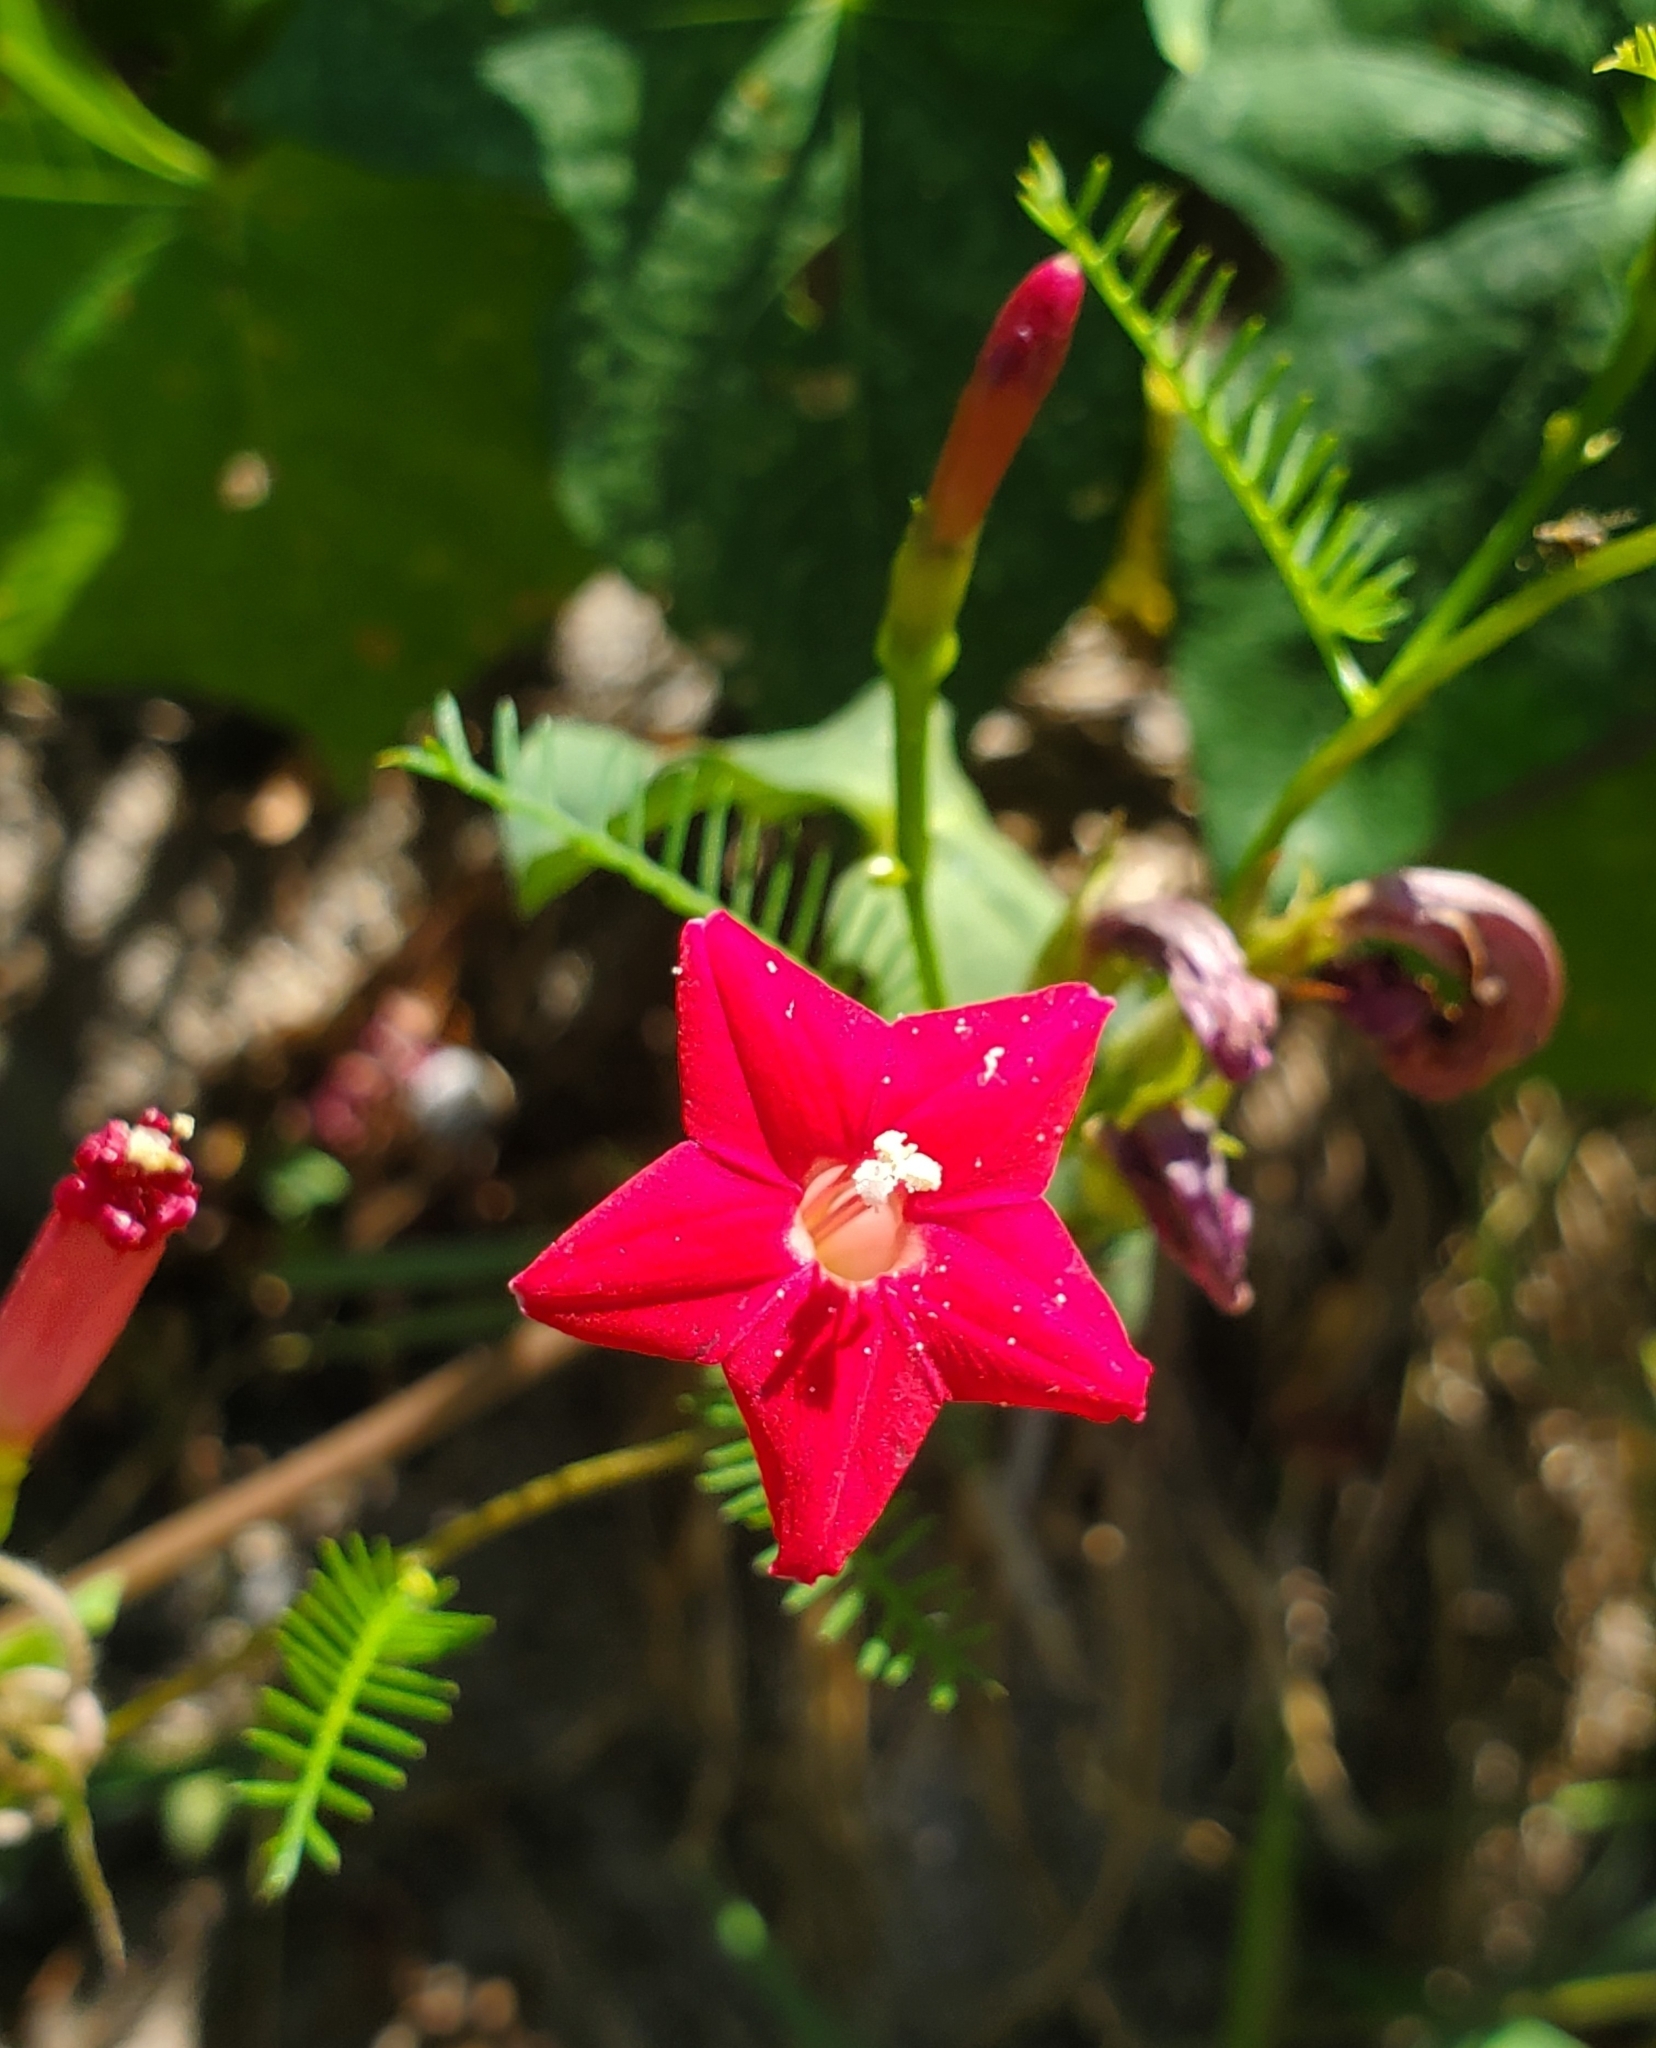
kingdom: Plantae
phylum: Tracheophyta
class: Magnoliopsida
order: Solanales
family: Convolvulaceae
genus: Ipomoea
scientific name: Ipomoea quamoclit
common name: Cypress vine
